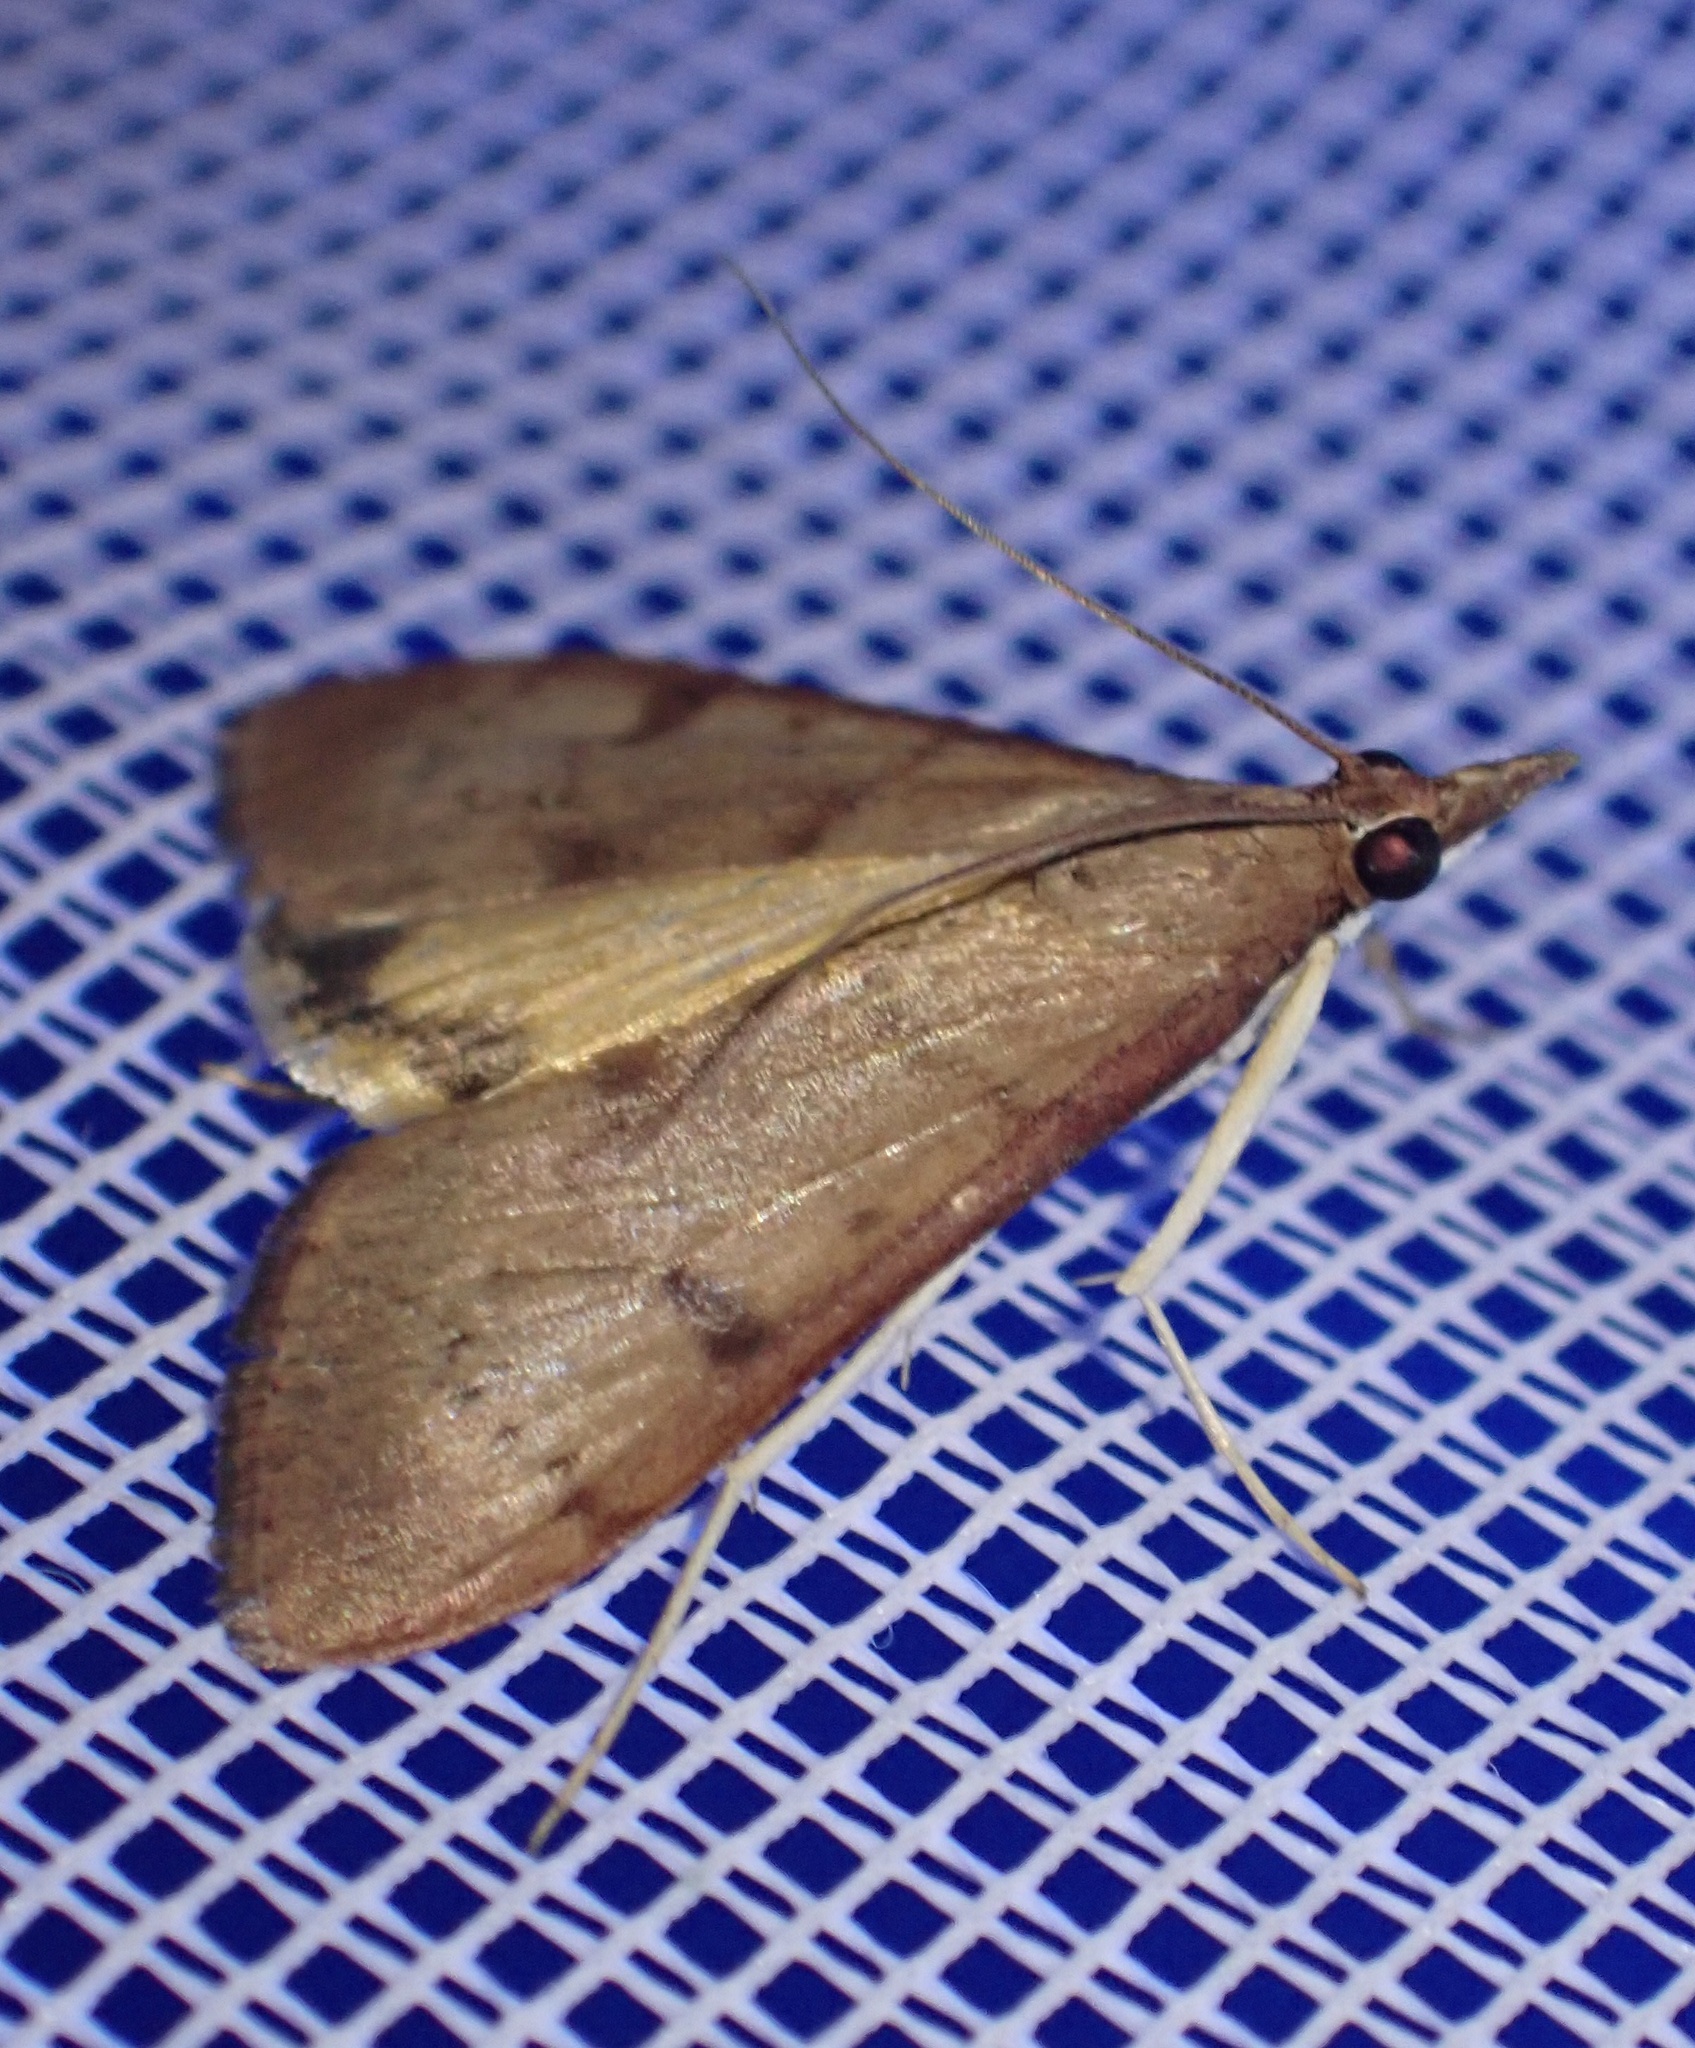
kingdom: Animalia
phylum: Arthropoda
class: Insecta
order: Lepidoptera
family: Crambidae
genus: Uresiphita
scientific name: Uresiphita gilvata
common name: Yellow-underwing pearl
